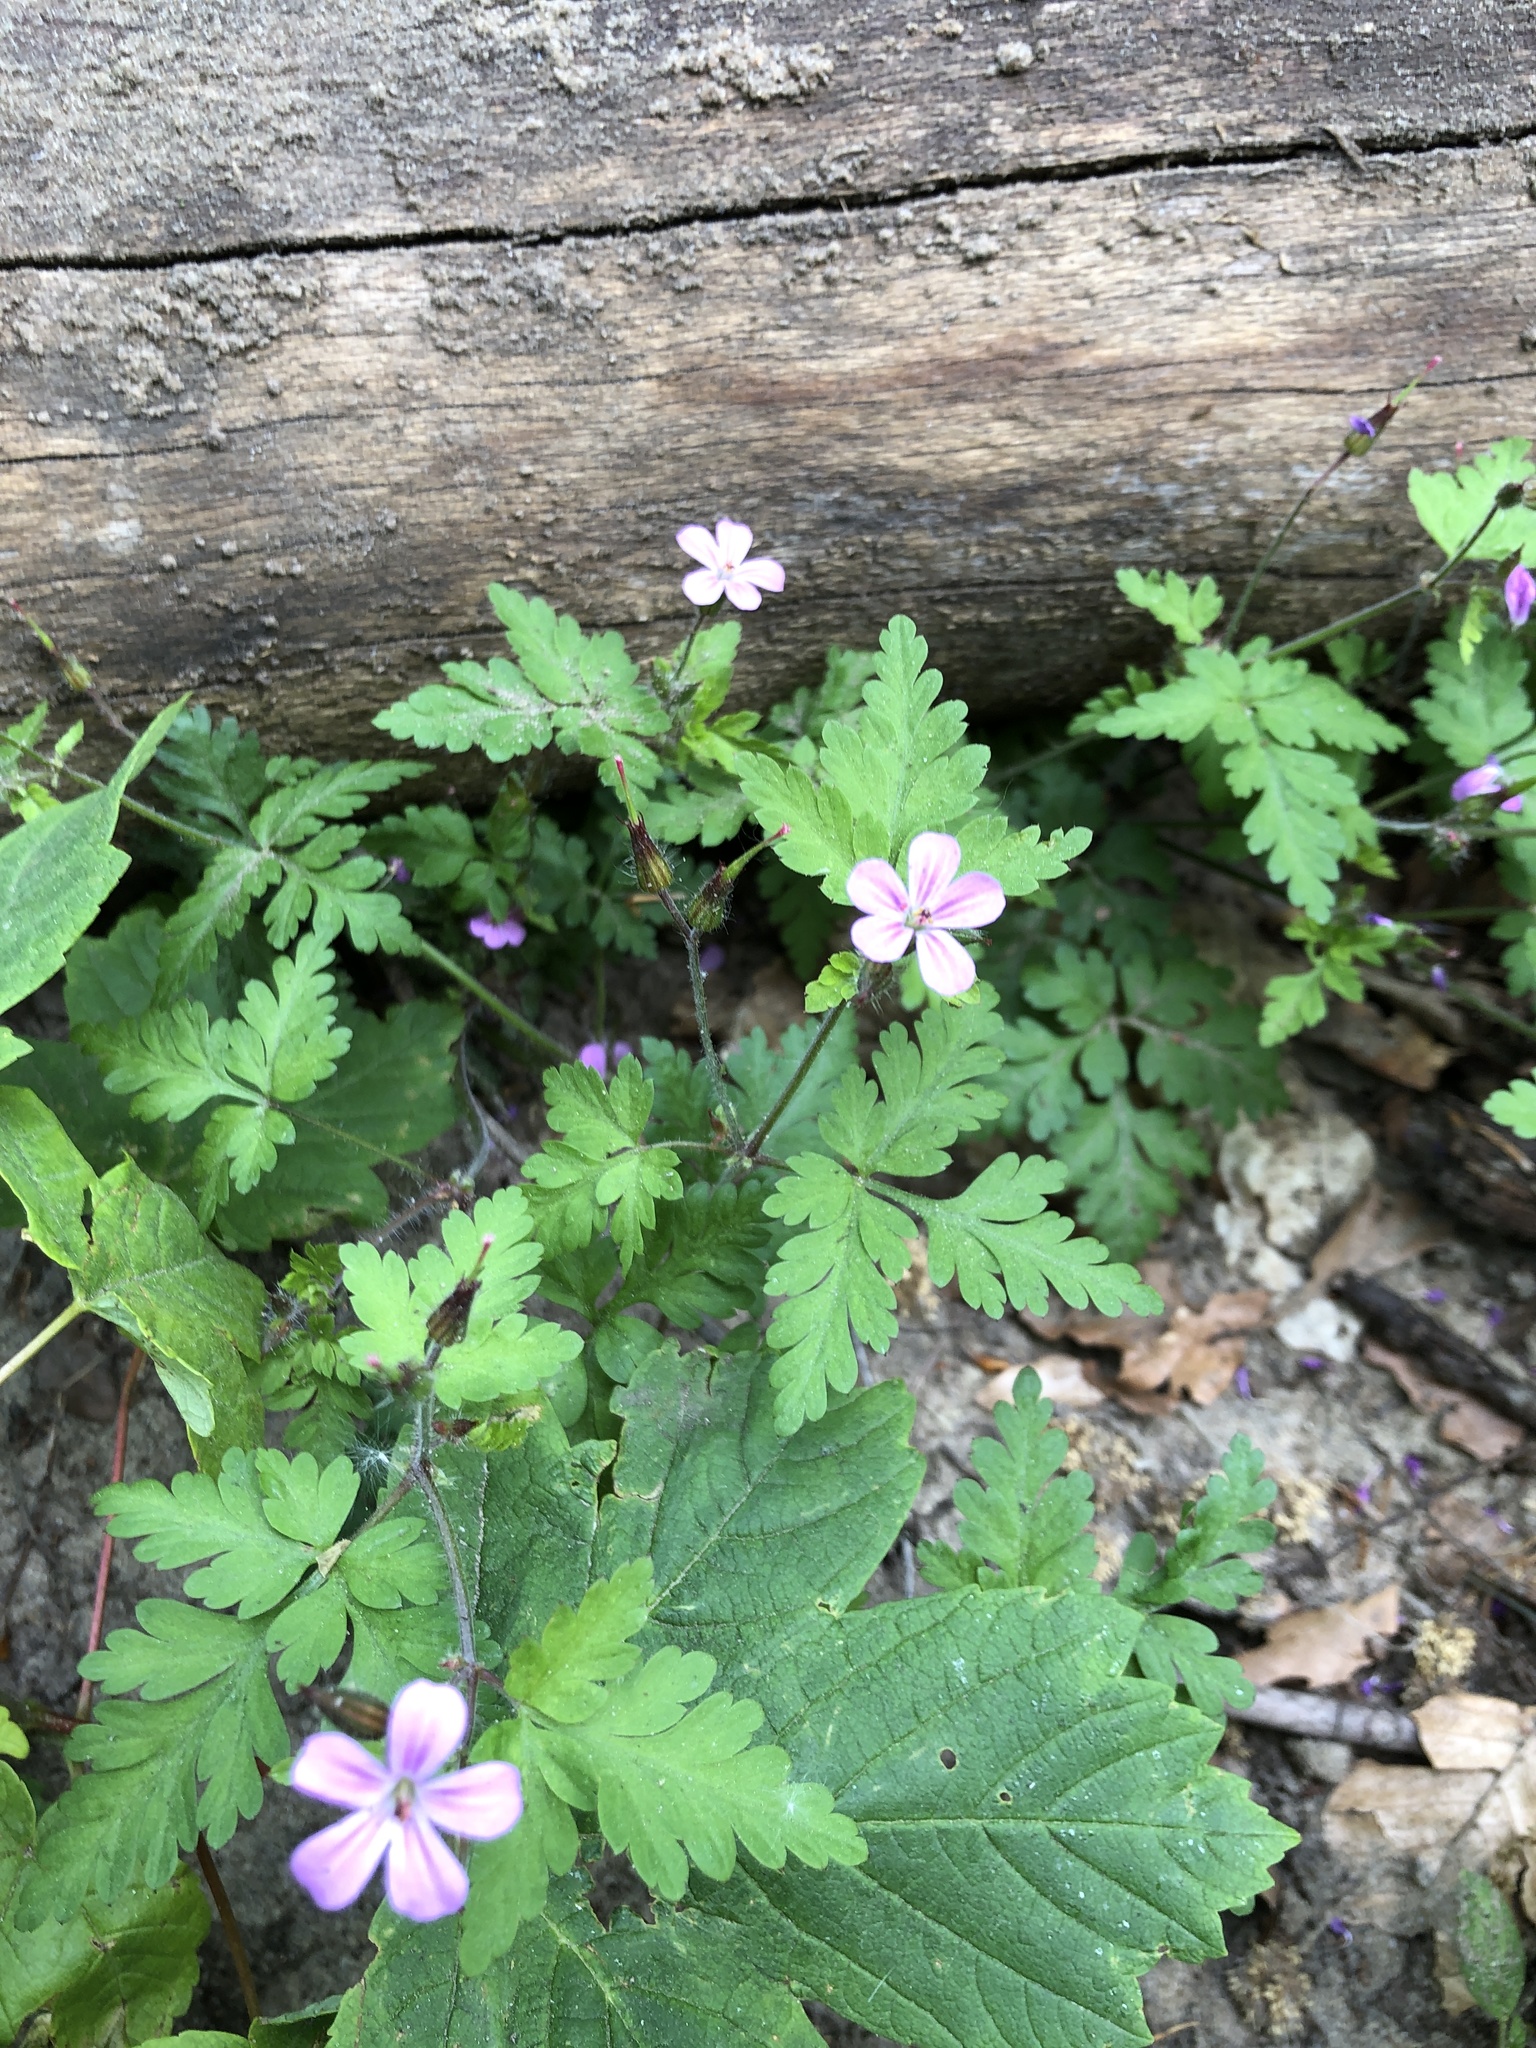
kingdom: Plantae
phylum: Tracheophyta
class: Magnoliopsida
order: Geraniales
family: Geraniaceae
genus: Geranium
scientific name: Geranium robertianum
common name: Herb-robert
